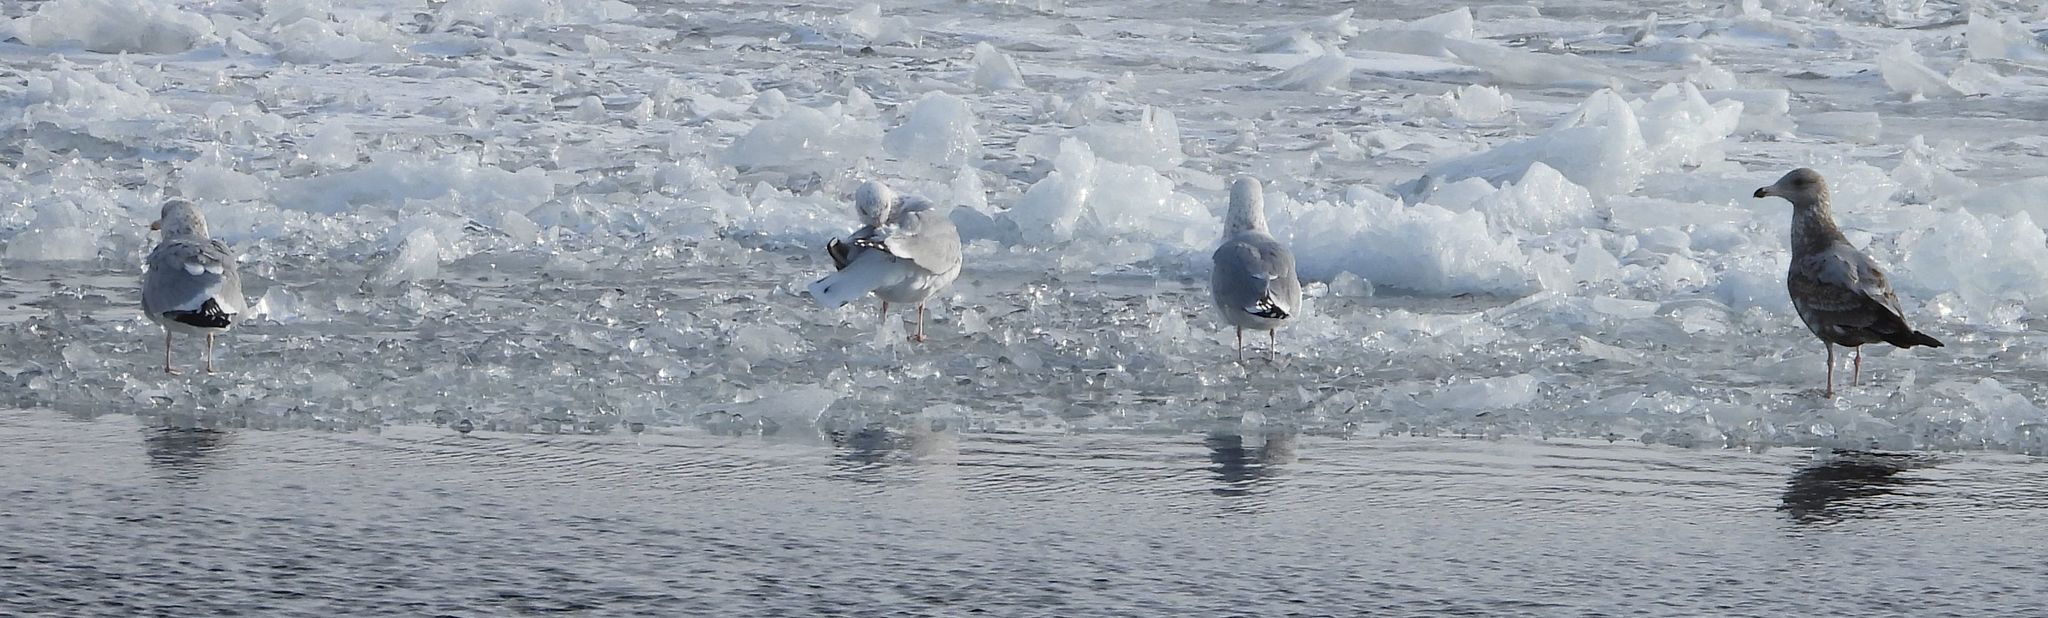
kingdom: Animalia
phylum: Chordata
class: Aves
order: Charadriiformes
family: Laridae
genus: Larus
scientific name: Larus argentatus
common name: Herring gull
